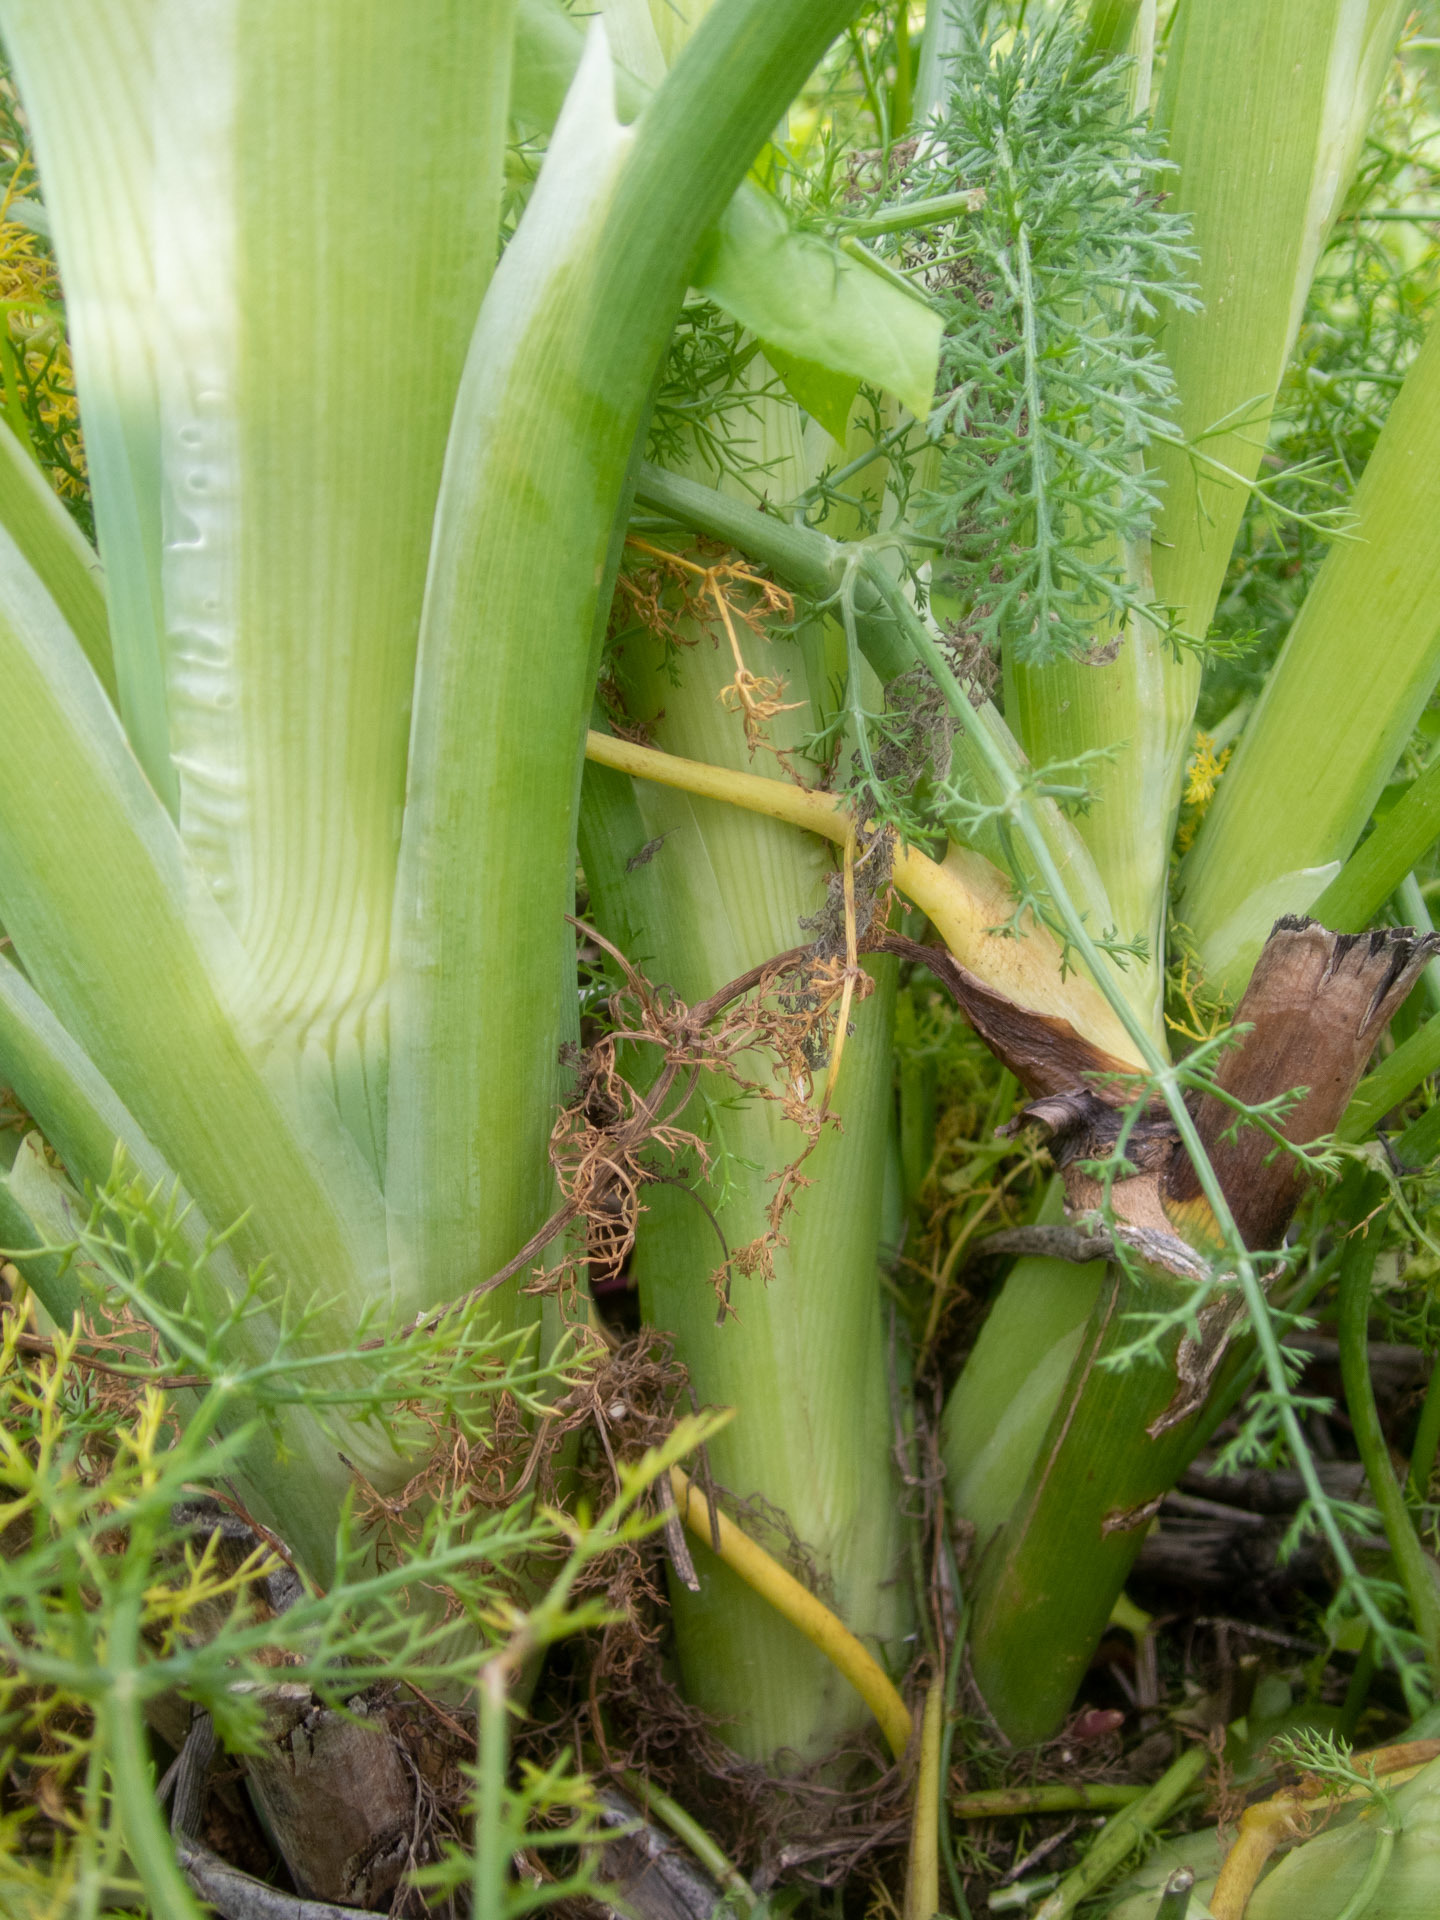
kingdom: Plantae
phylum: Tracheophyta
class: Magnoliopsida
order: Apiales
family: Apiaceae
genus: Foeniculum
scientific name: Foeniculum vulgare
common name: Fennel
